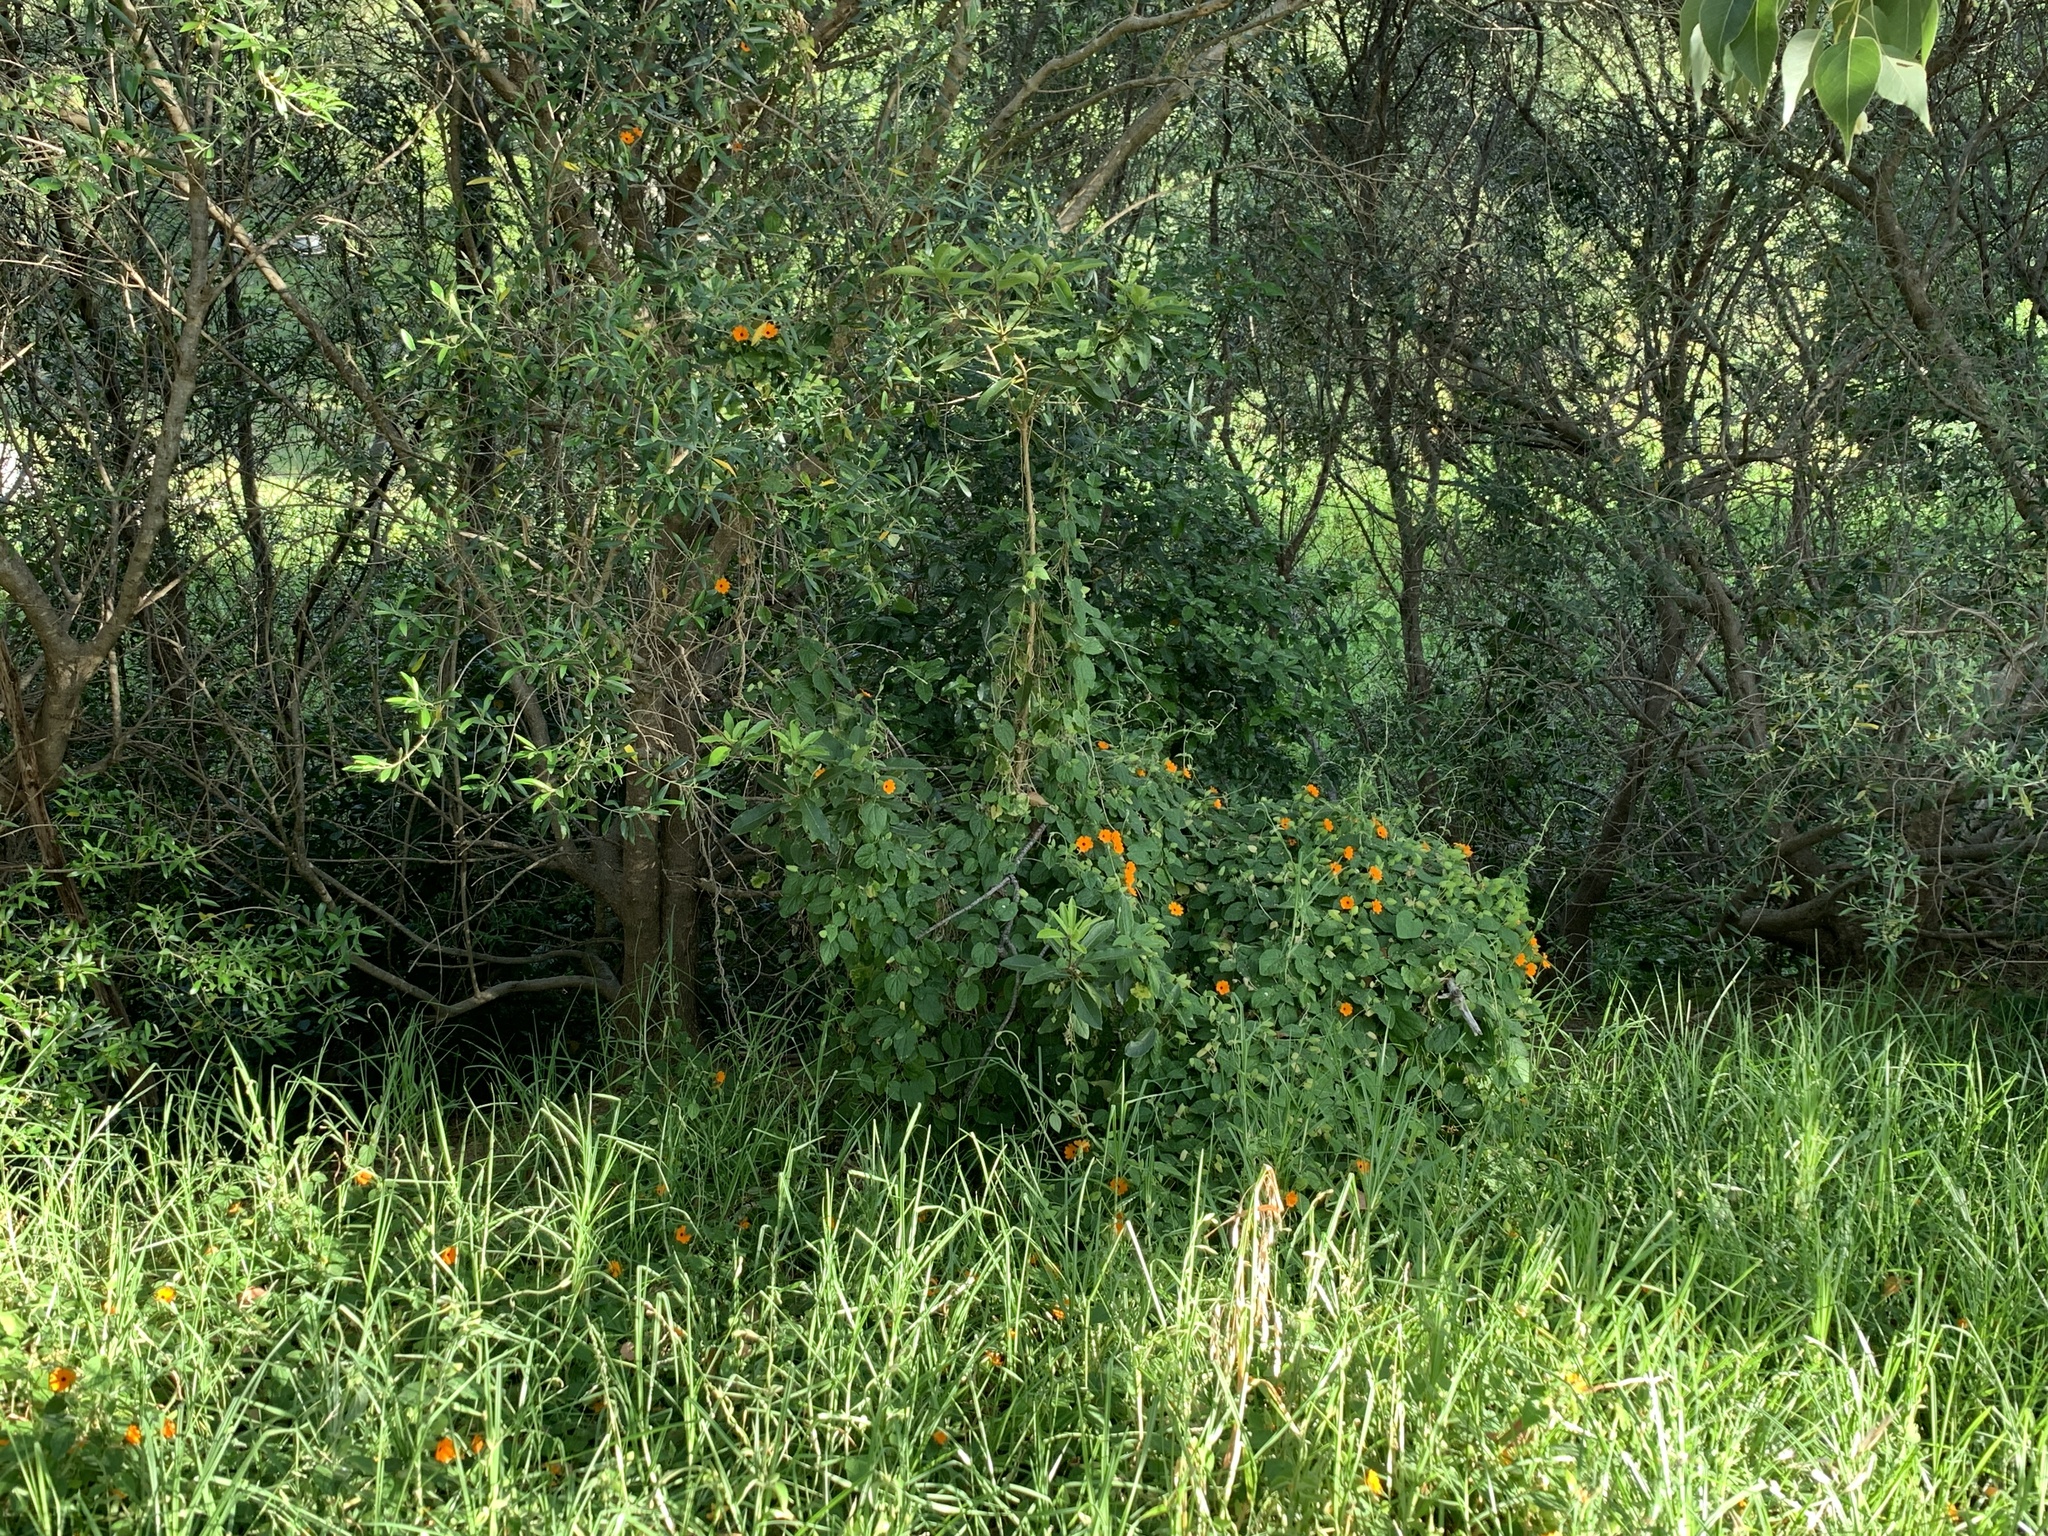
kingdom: Plantae
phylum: Tracheophyta
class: Magnoliopsida
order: Lamiales
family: Acanthaceae
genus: Thunbergia
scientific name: Thunbergia alata
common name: Blackeyed susan vine
